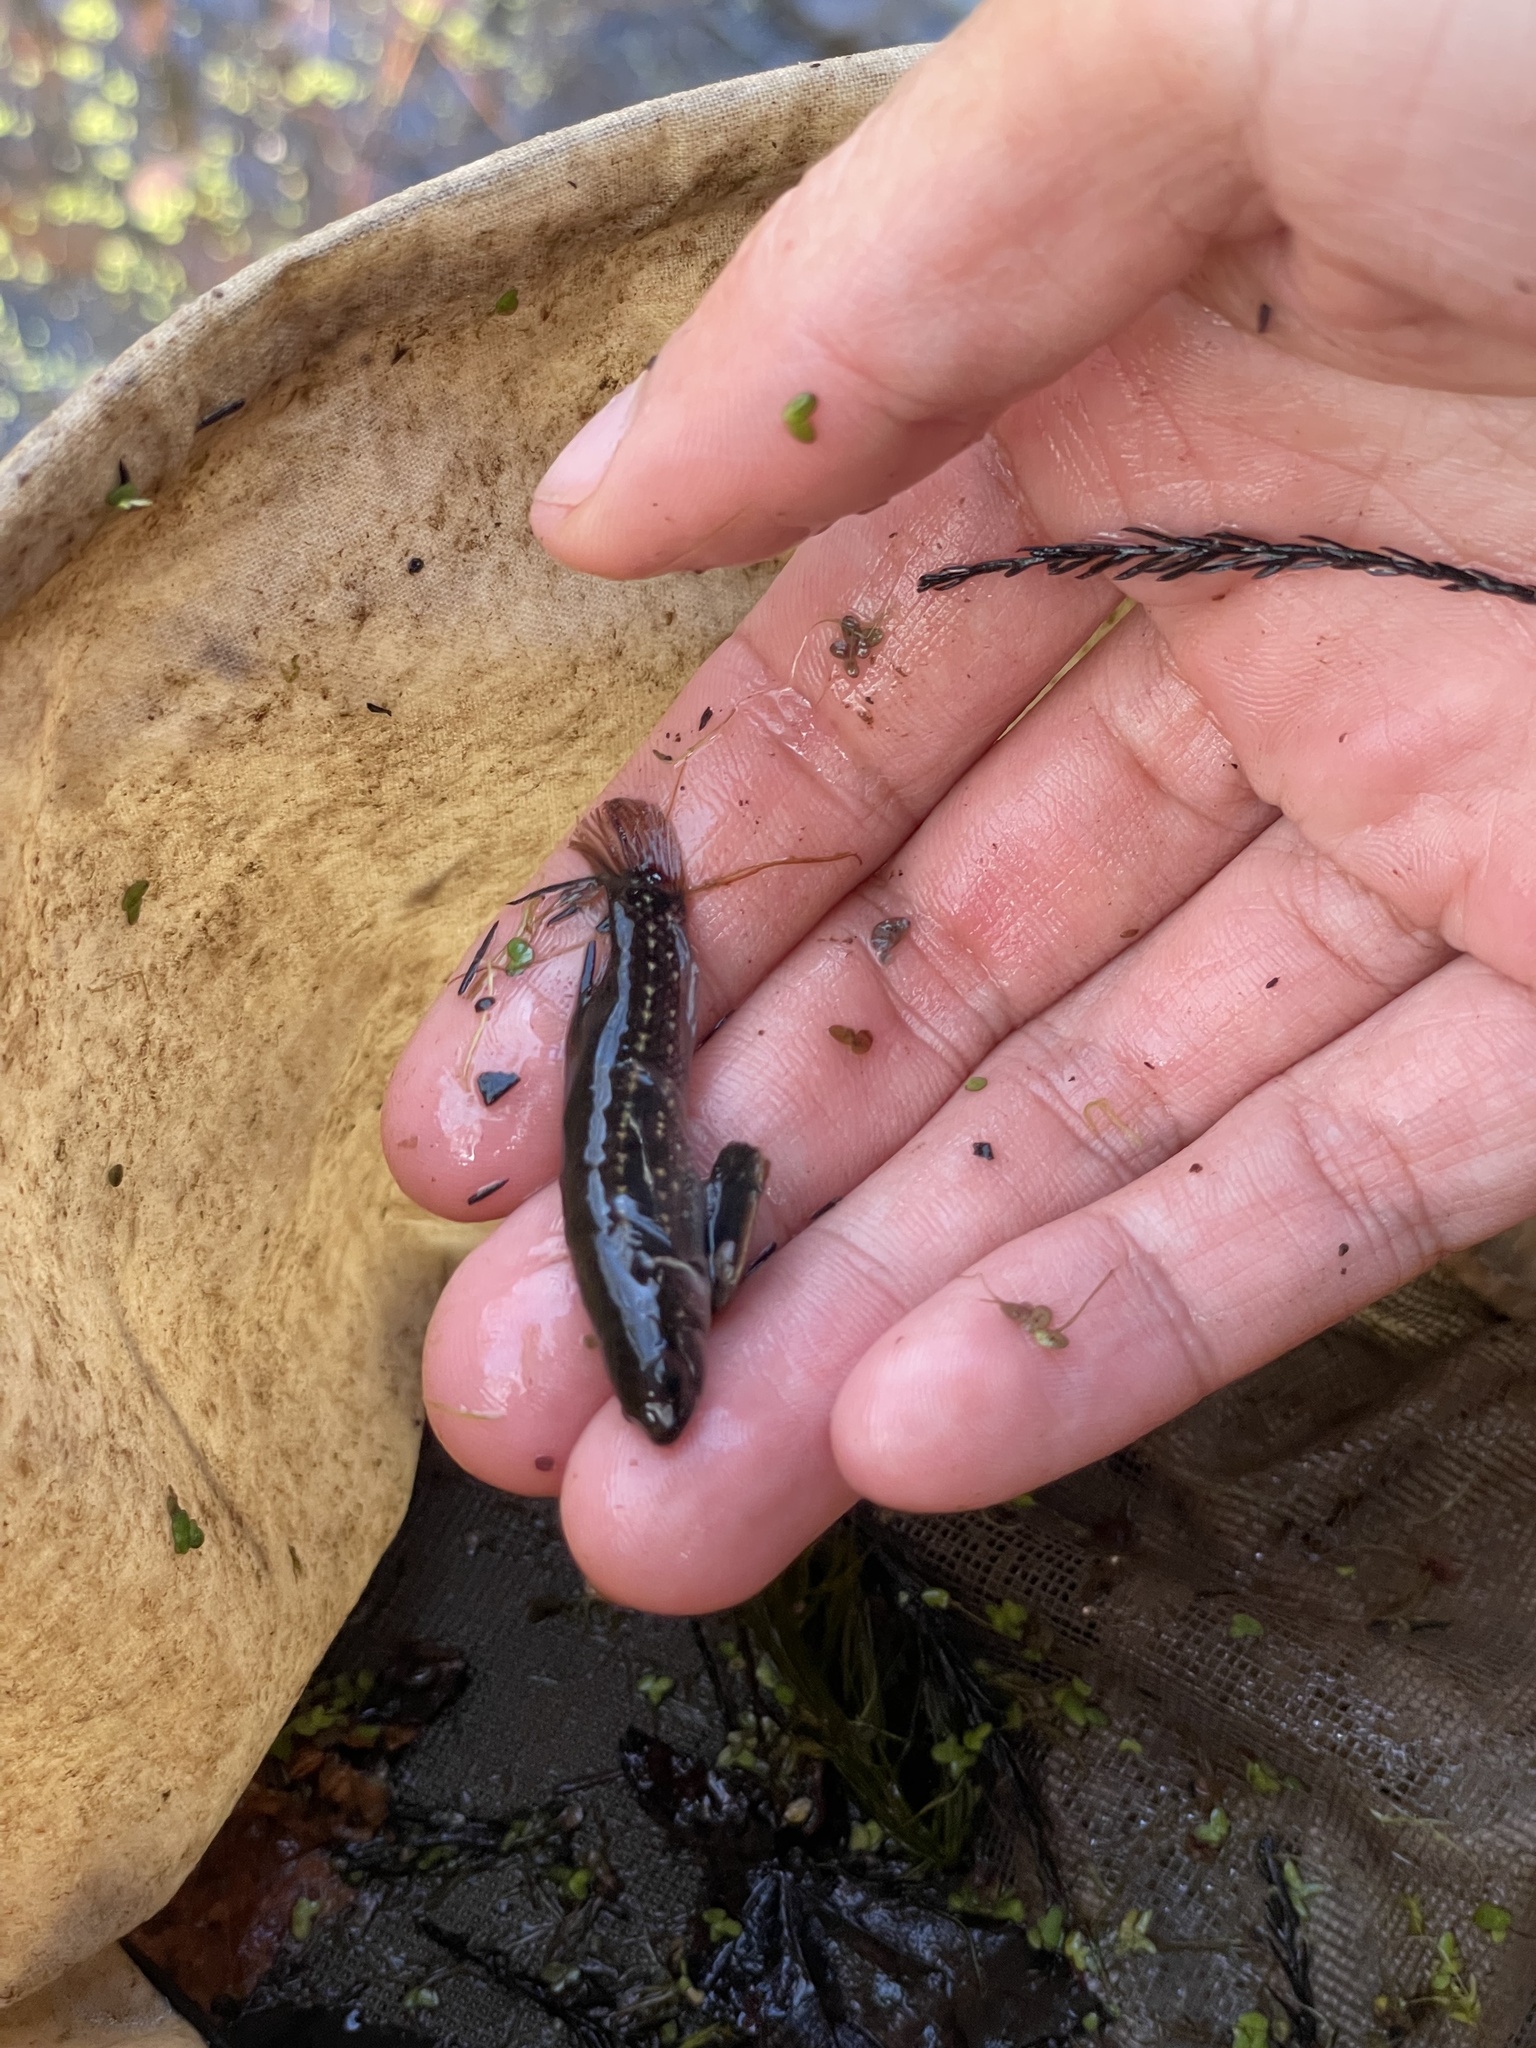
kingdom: Animalia
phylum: Chordata
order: Esociformes
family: Umbridae
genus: Umbra
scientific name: Umbra pygmaea
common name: Eastern mudminnow
